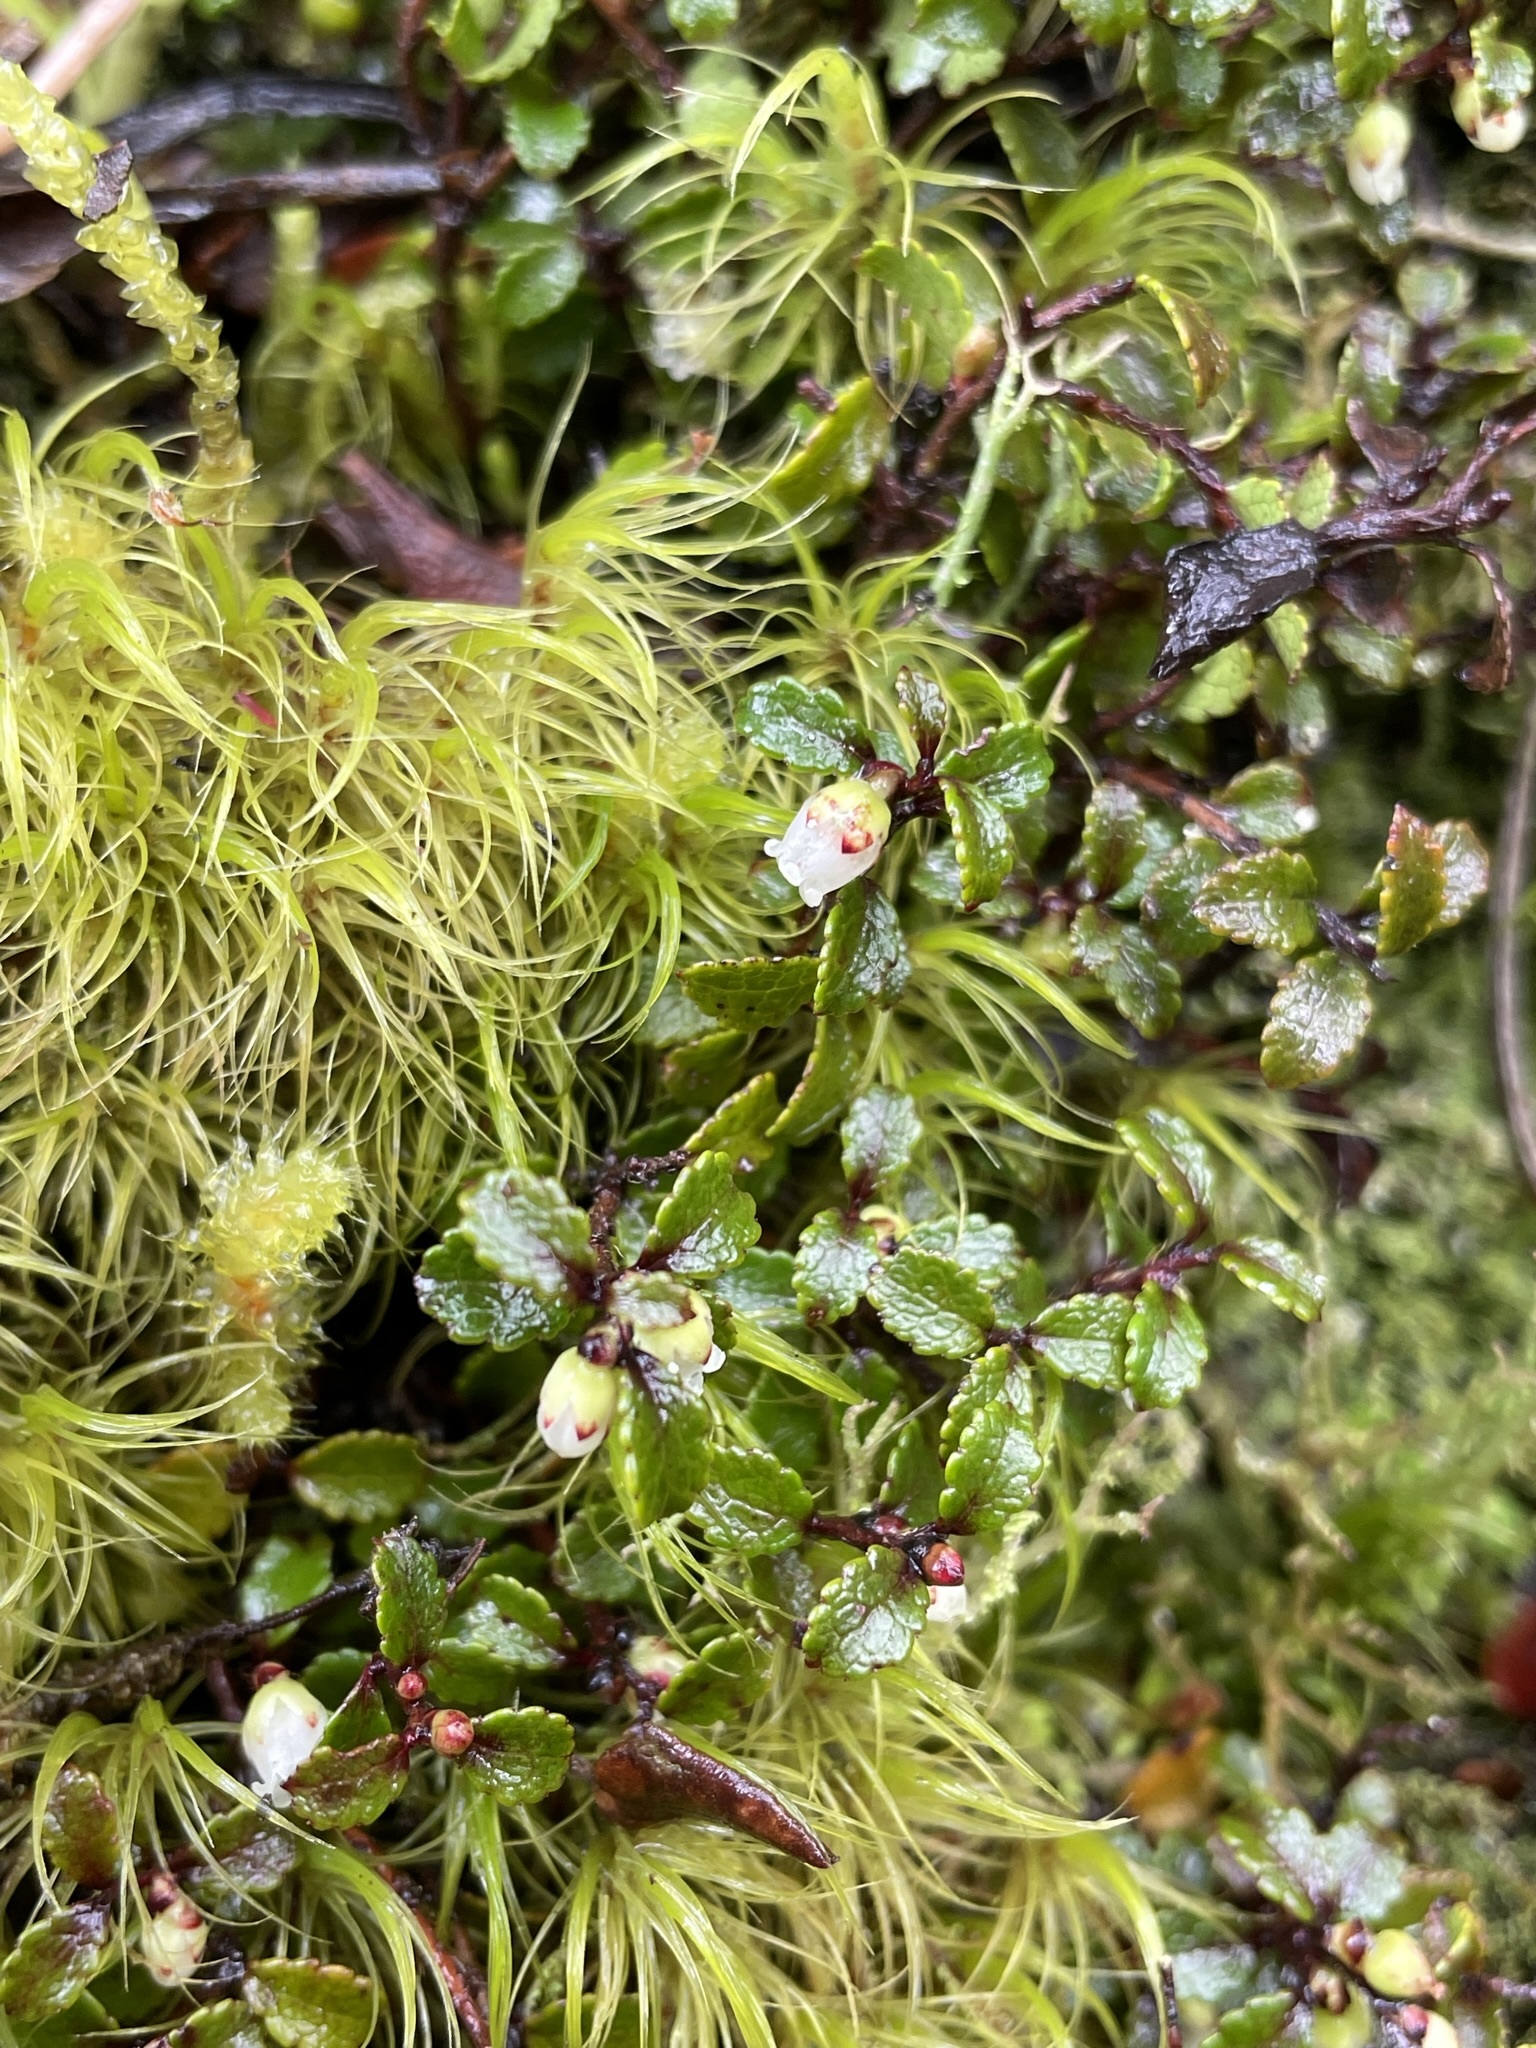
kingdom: Plantae
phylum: Tracheophyta
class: Magnoliopsida
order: Ericales
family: Ericaceae
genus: Gaultheria
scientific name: Gaultheria depressa
